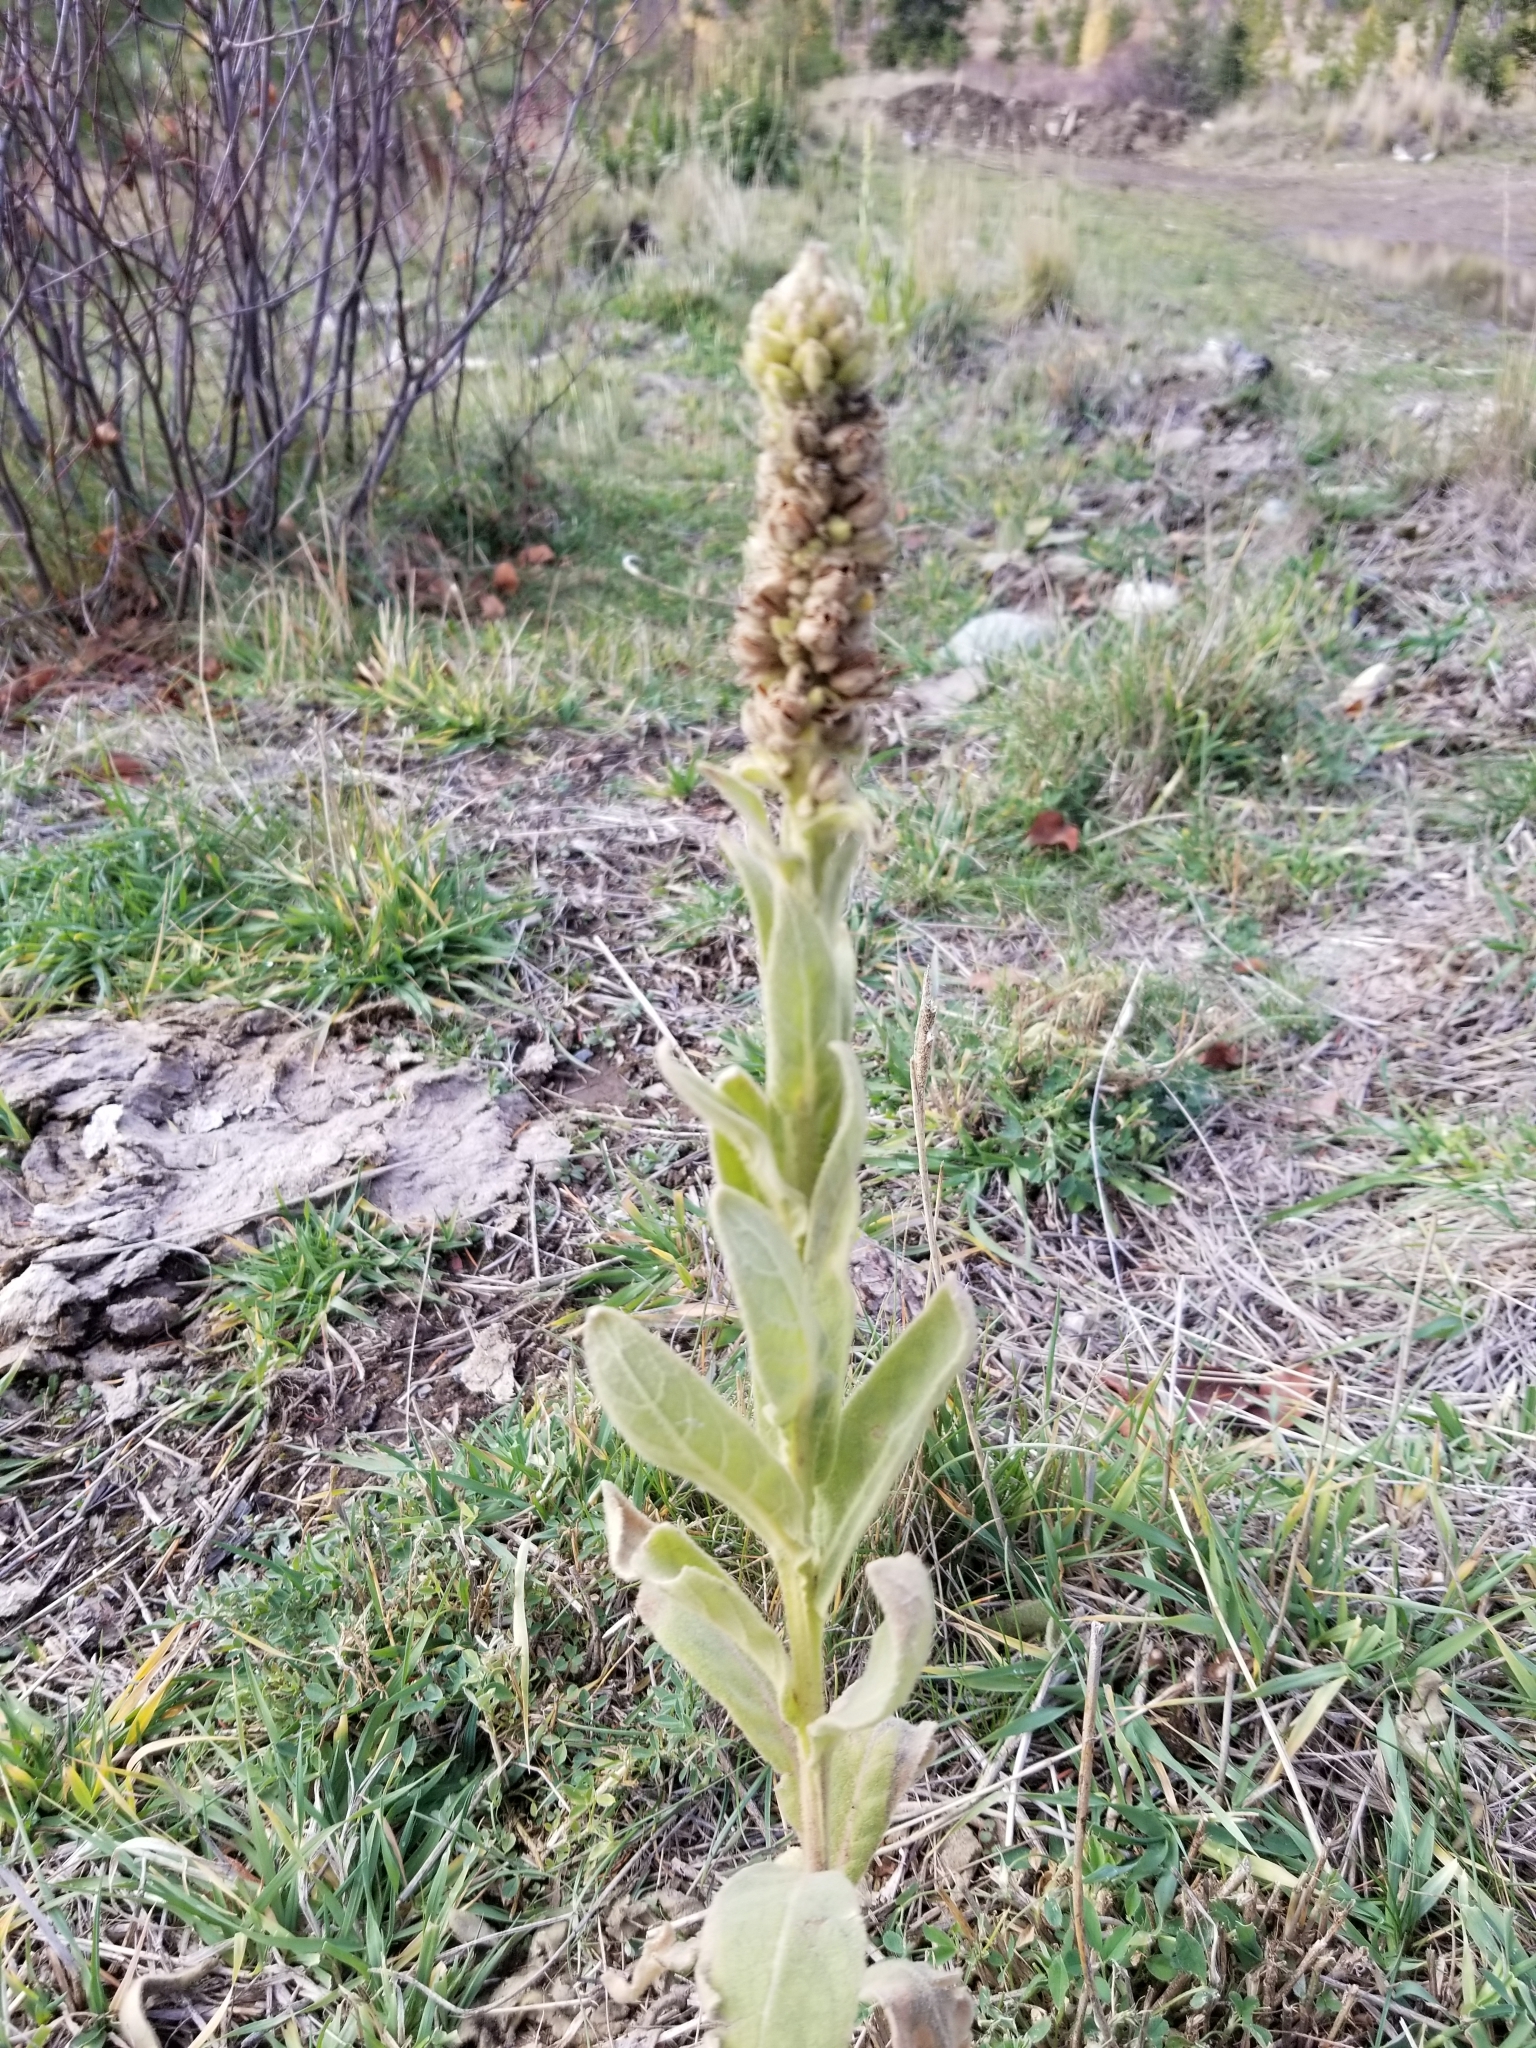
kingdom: Plantae
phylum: Tracheophyta
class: Magnoliopsida
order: Lamiales
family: Scrophulariaceae
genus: Verbascum
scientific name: Verbascum thapsus
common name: Common mullein
